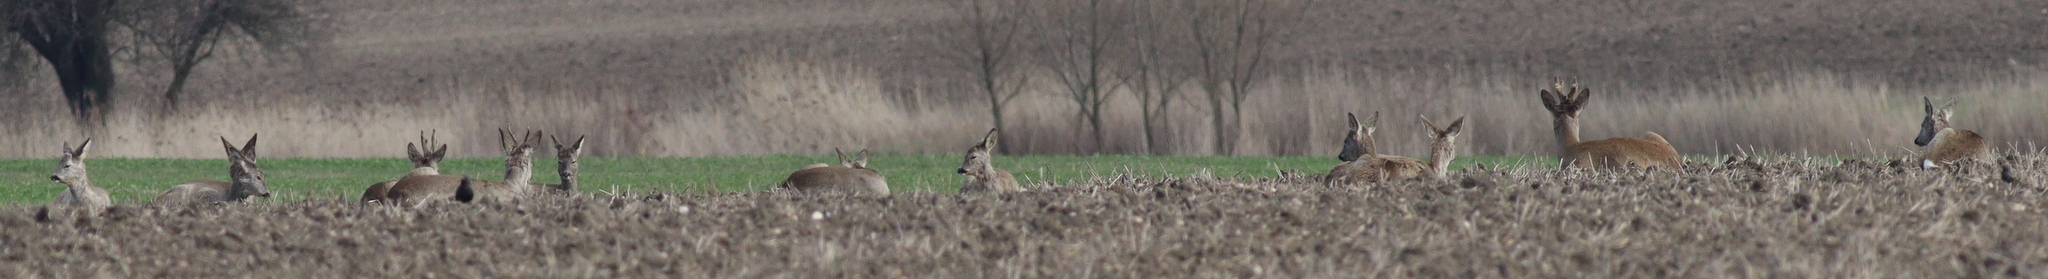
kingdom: Animalia
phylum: Chordata
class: Mammalia
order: Artiodactyla
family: Cervidae
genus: Capreolus
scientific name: Capreolus capreolus
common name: Western roe deer
